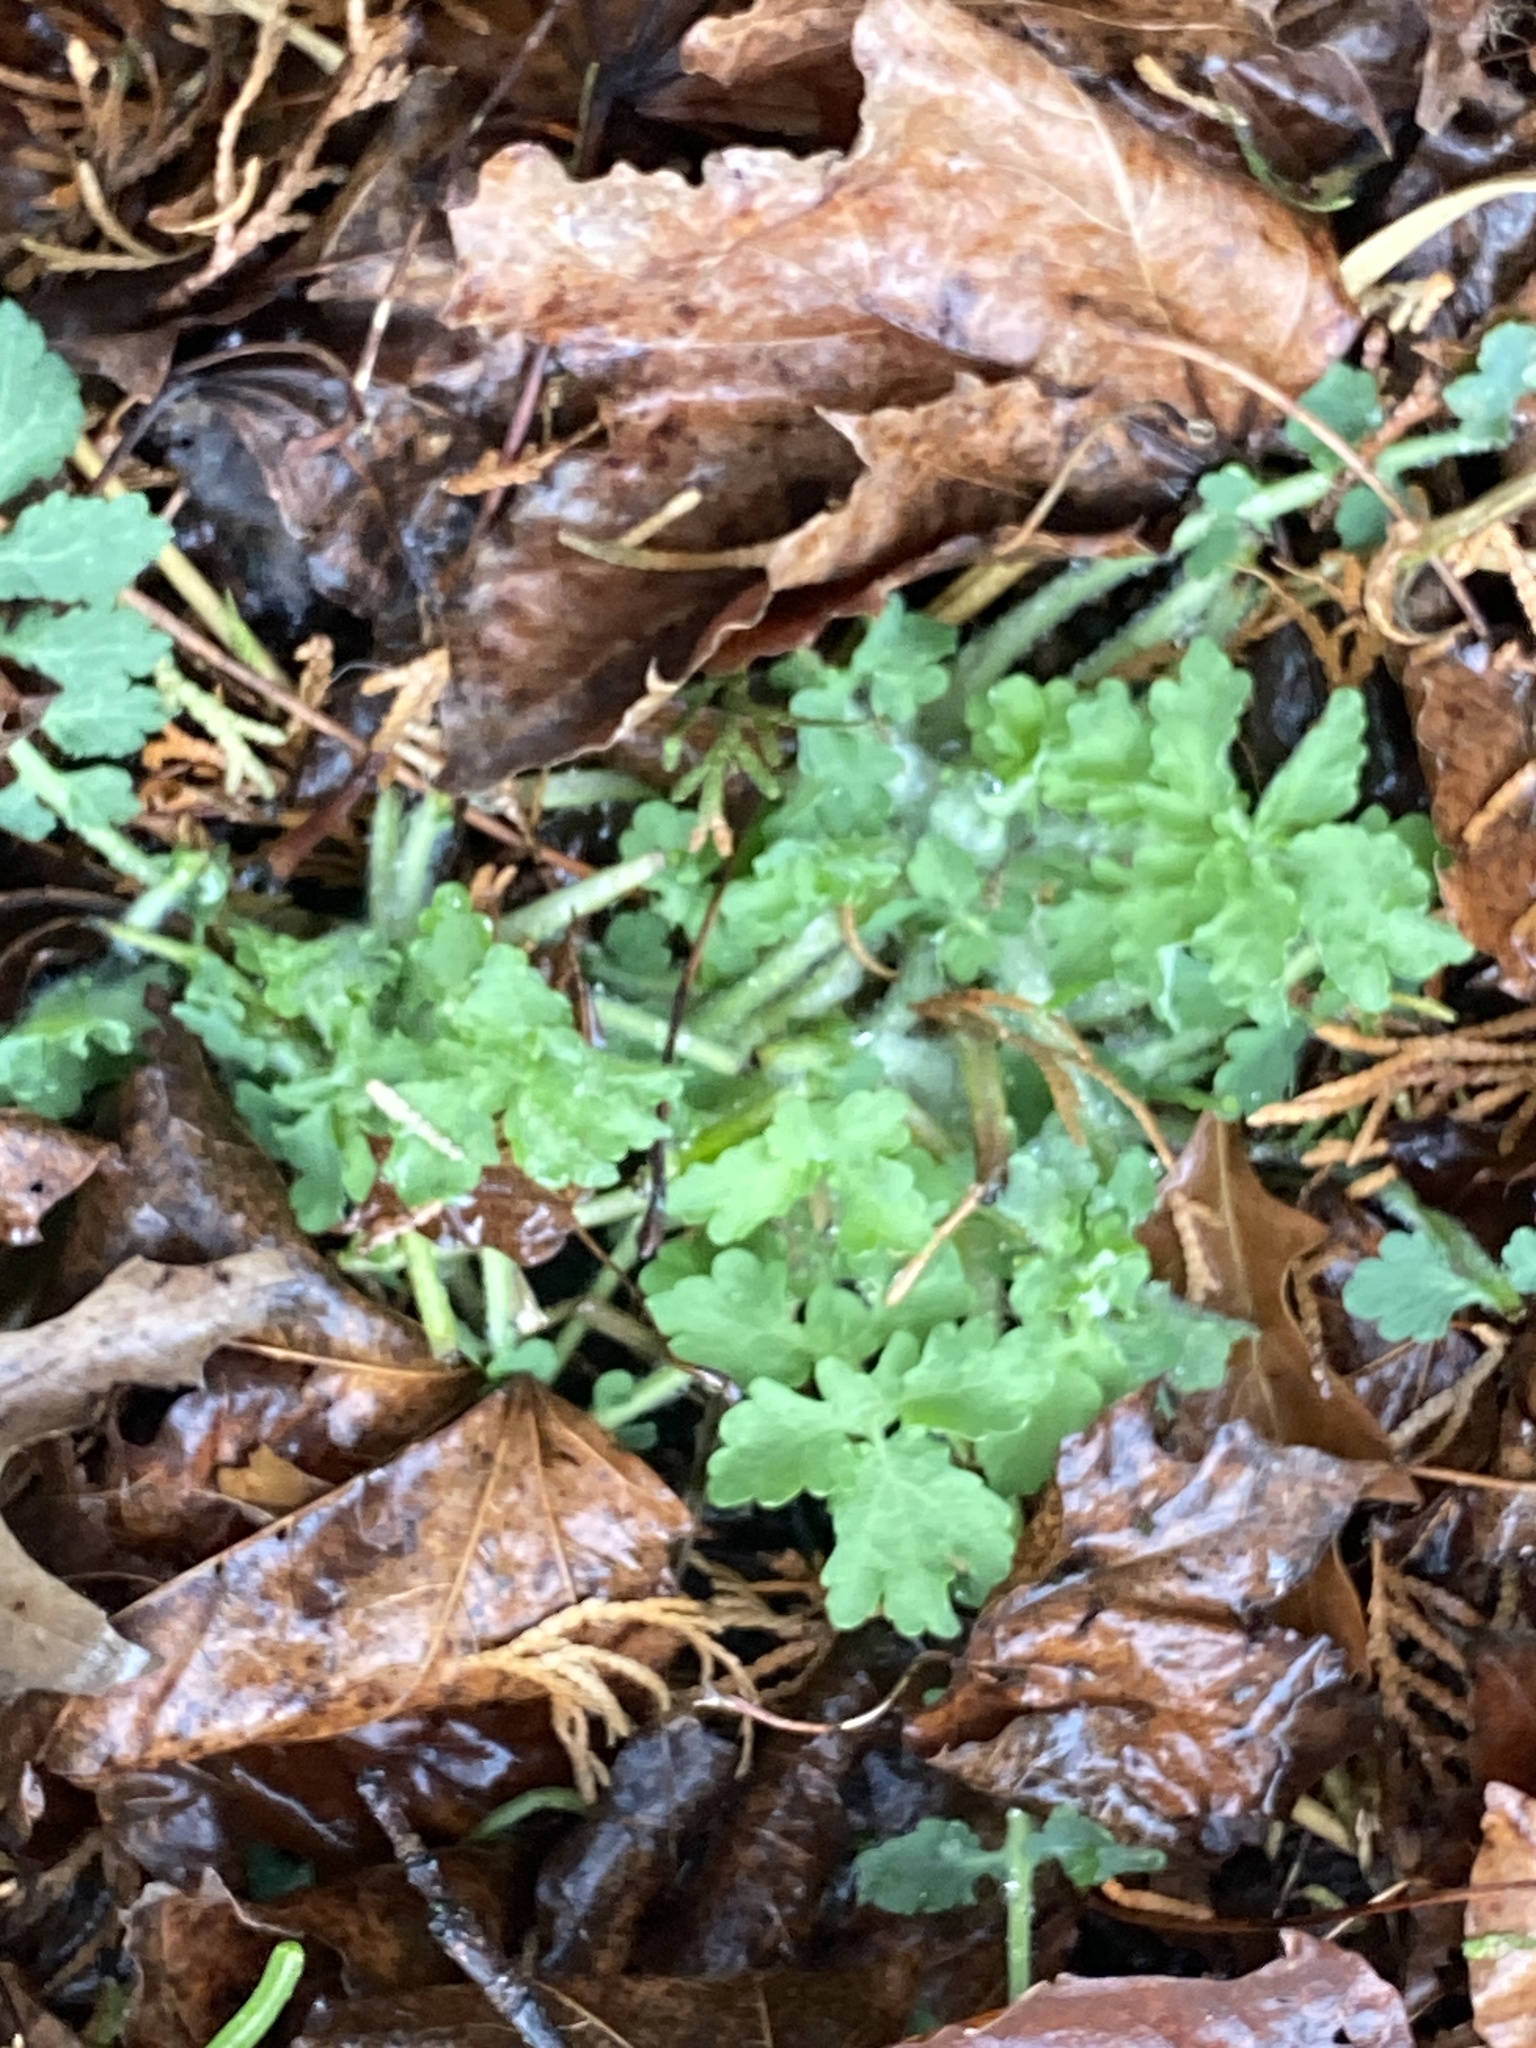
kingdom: Plantae
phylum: Tracheophyta
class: Magnoliopsida
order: Ranunculales
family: Papaveraceae
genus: Chelidonium
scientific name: Chelidonium majus
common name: Greater celandine
